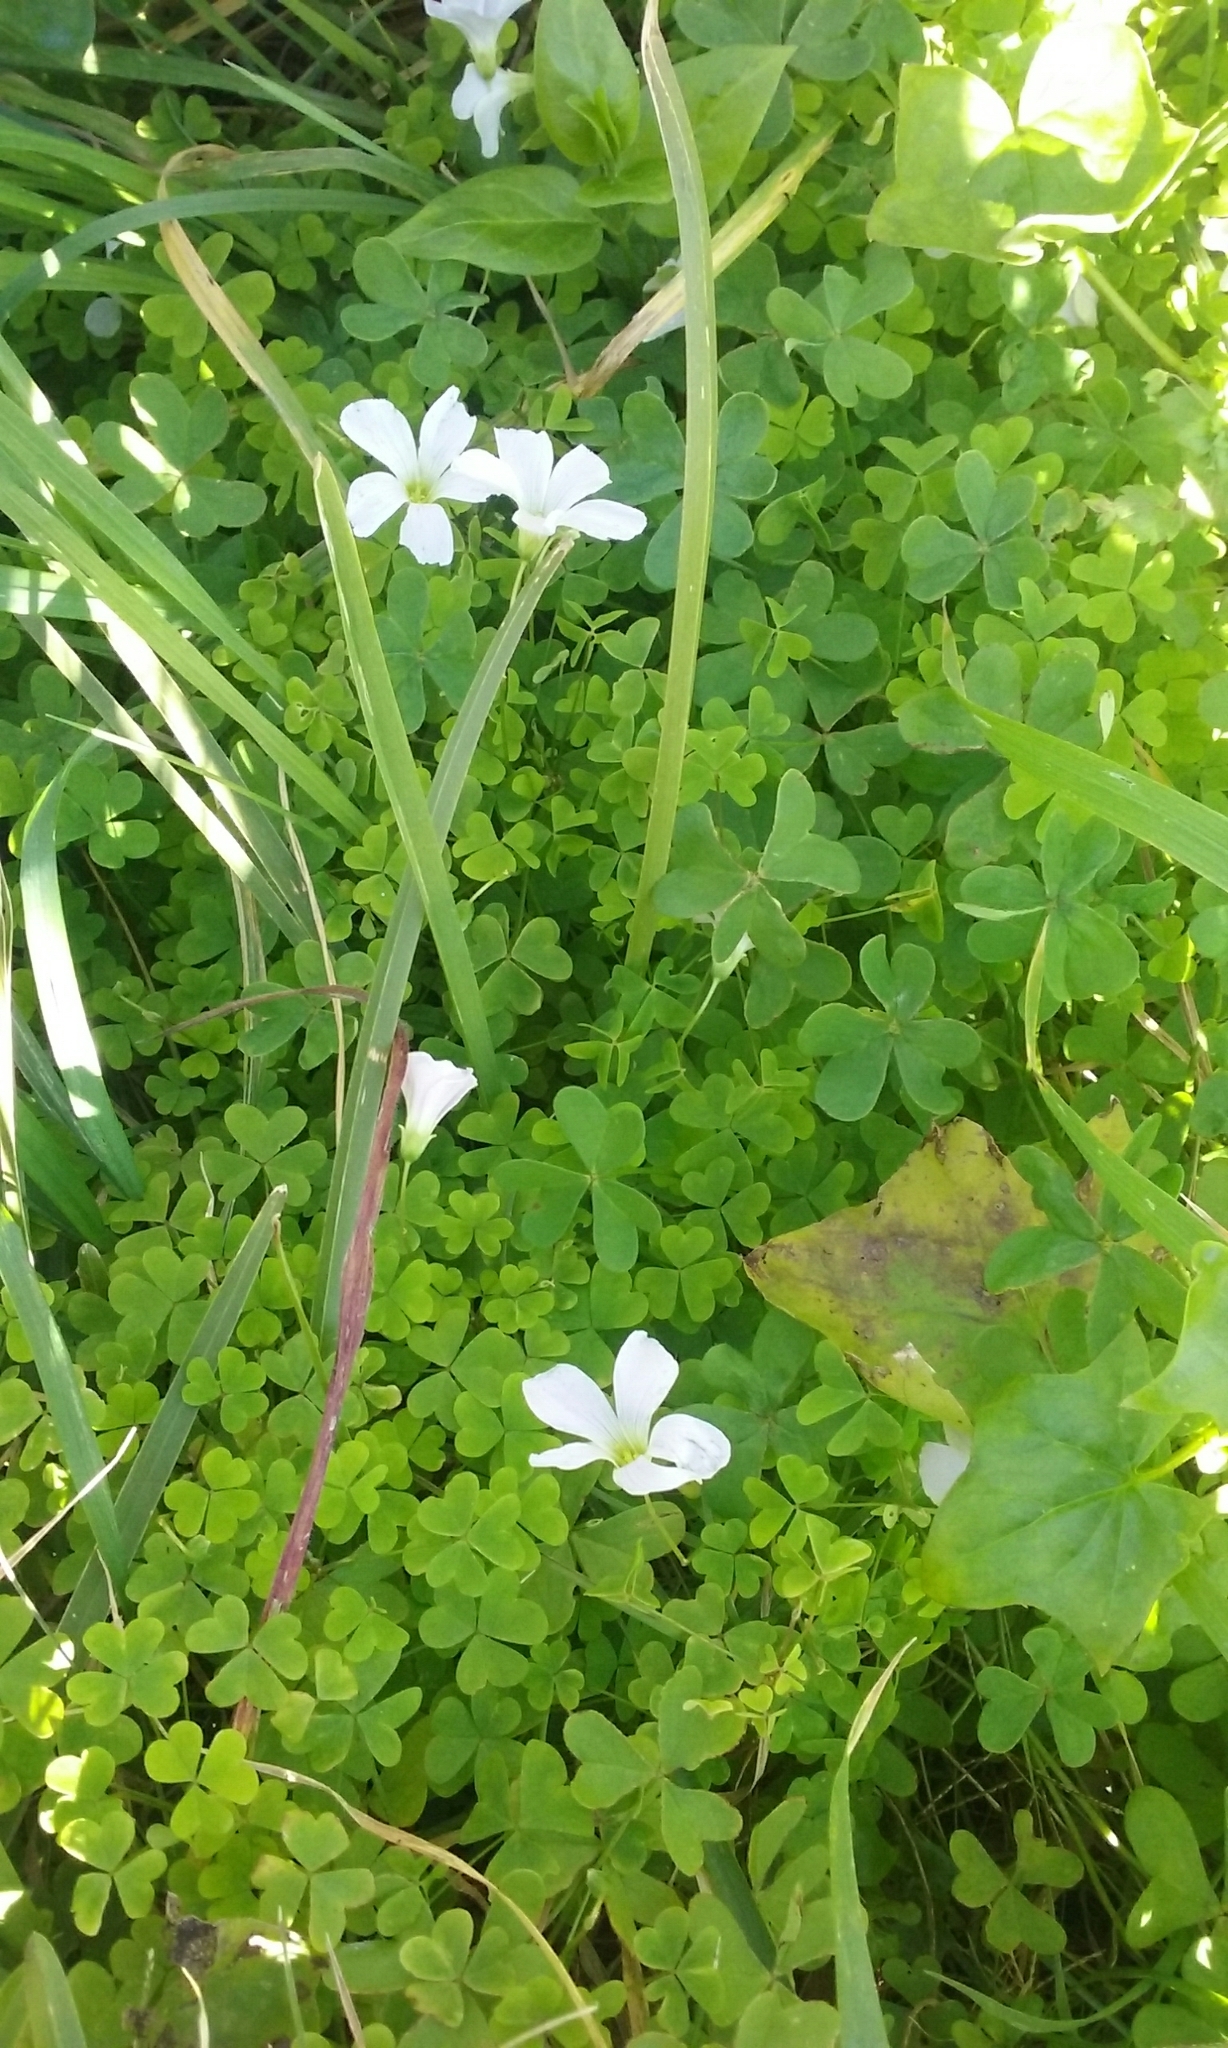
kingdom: Plantae
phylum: Tracheophyta
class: Magnoliopsida
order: Oxalidales
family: Oxalidaceae
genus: Oxalis
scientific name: Oxalis incarnata
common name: Pale pink-sorrel
